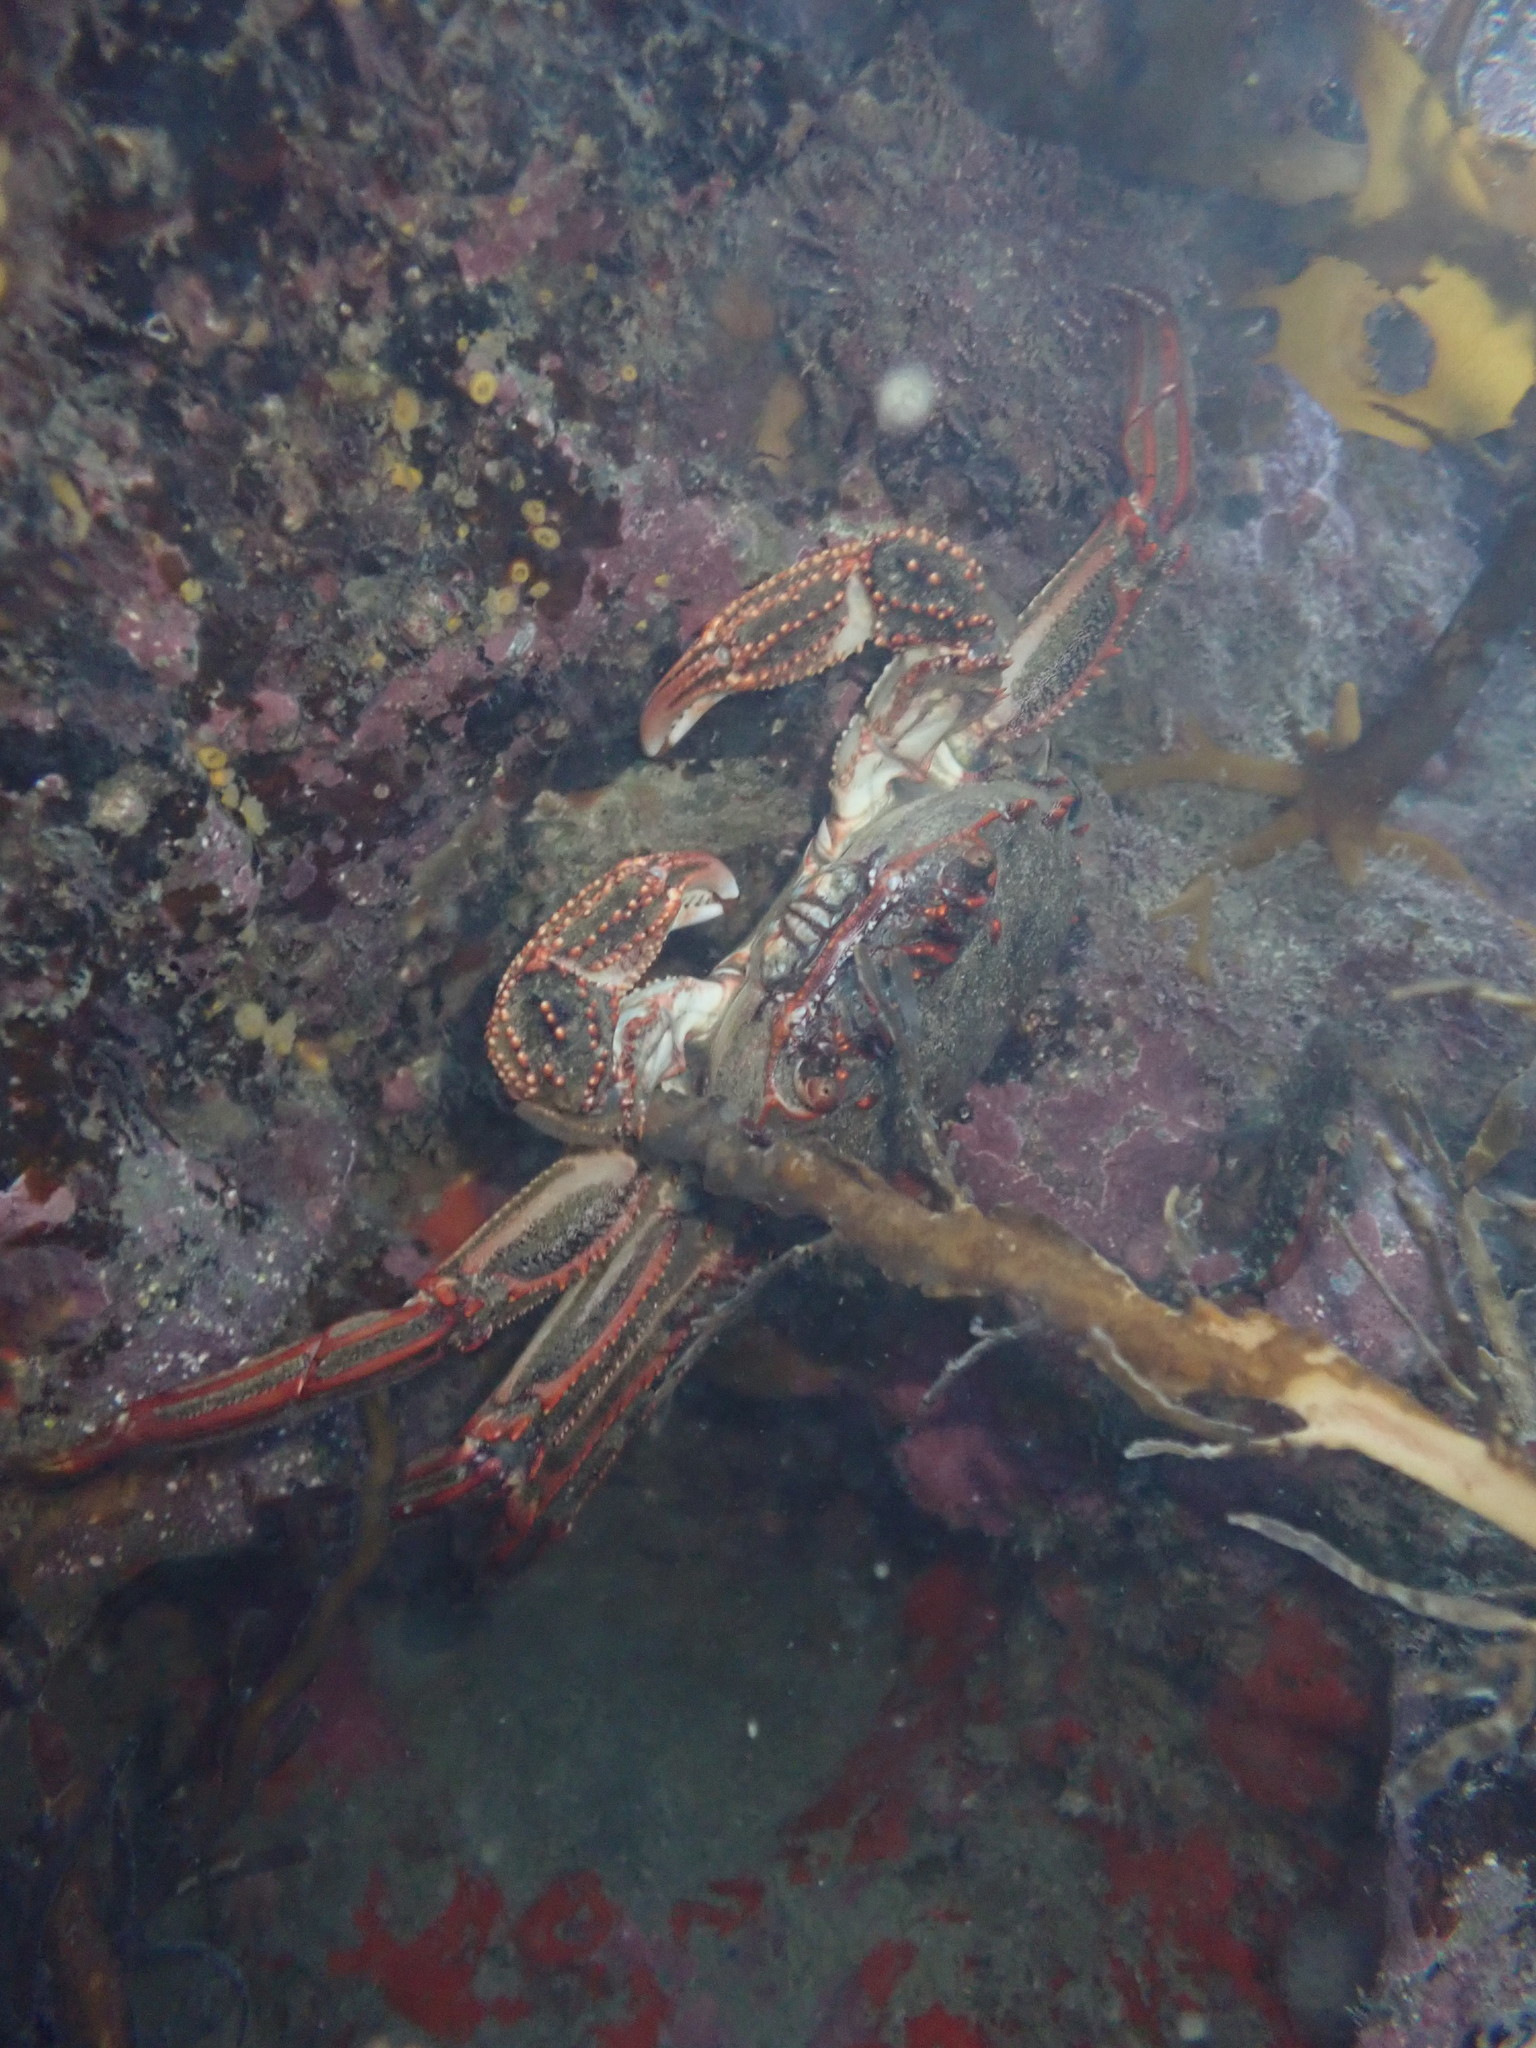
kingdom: Animalia
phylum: Arthropoda
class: Malacostraca
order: Decapoda
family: Plagusiidae
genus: Guinusia
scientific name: Guinusia chabrus
